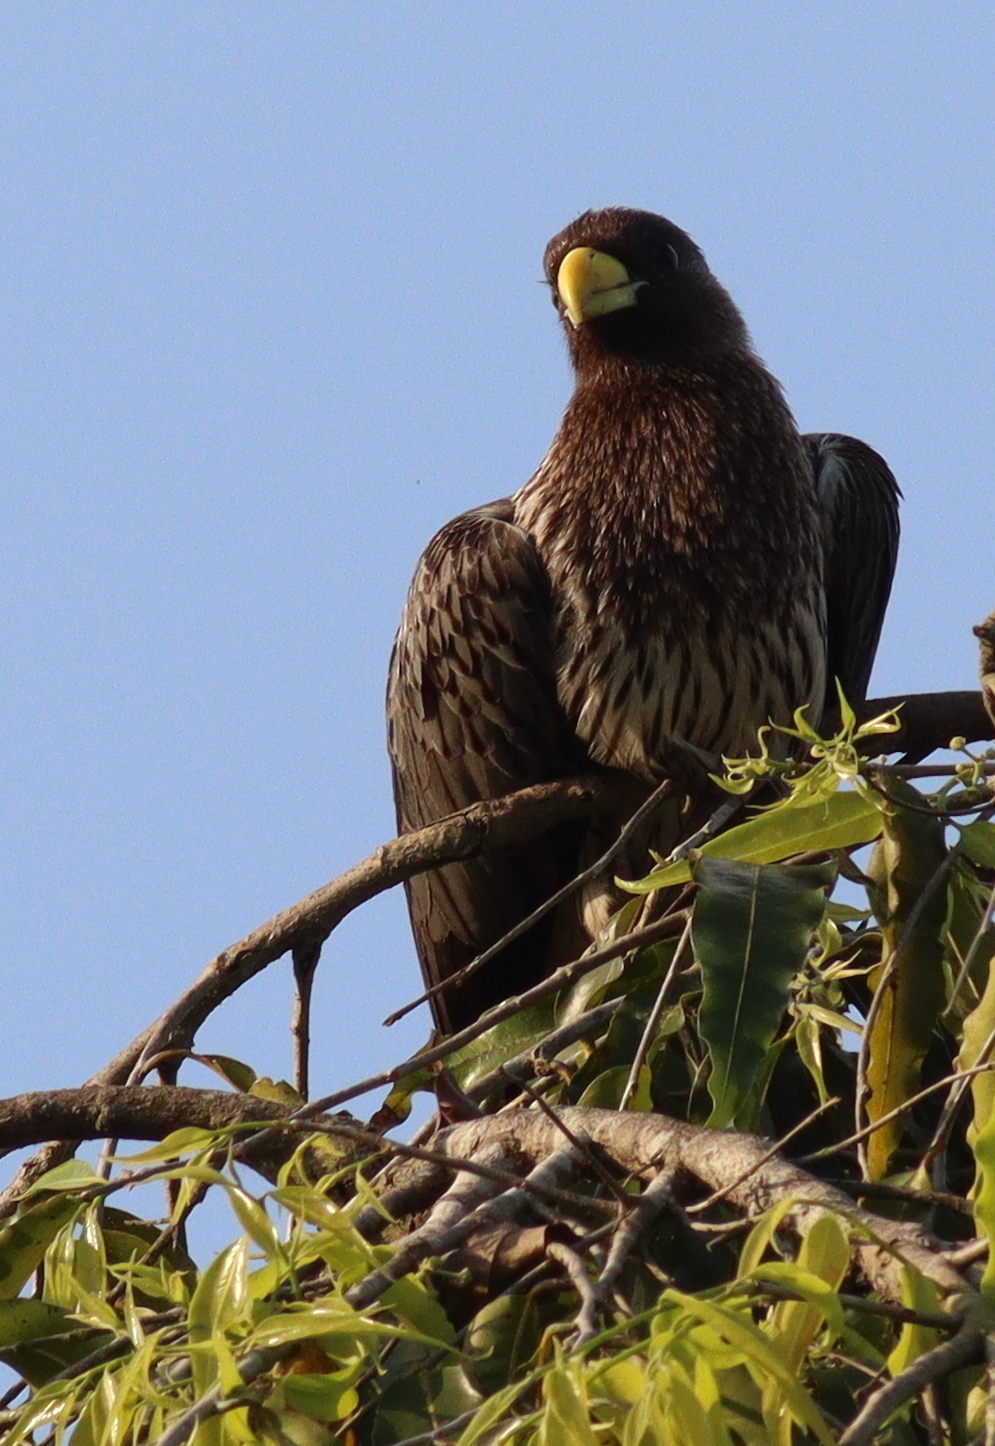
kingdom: Animalia
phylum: Chordata
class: Aves
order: Musophagiformes
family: Musophagidae
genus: Crinifer
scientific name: Crinifer piscator
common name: Western plantain-eater
